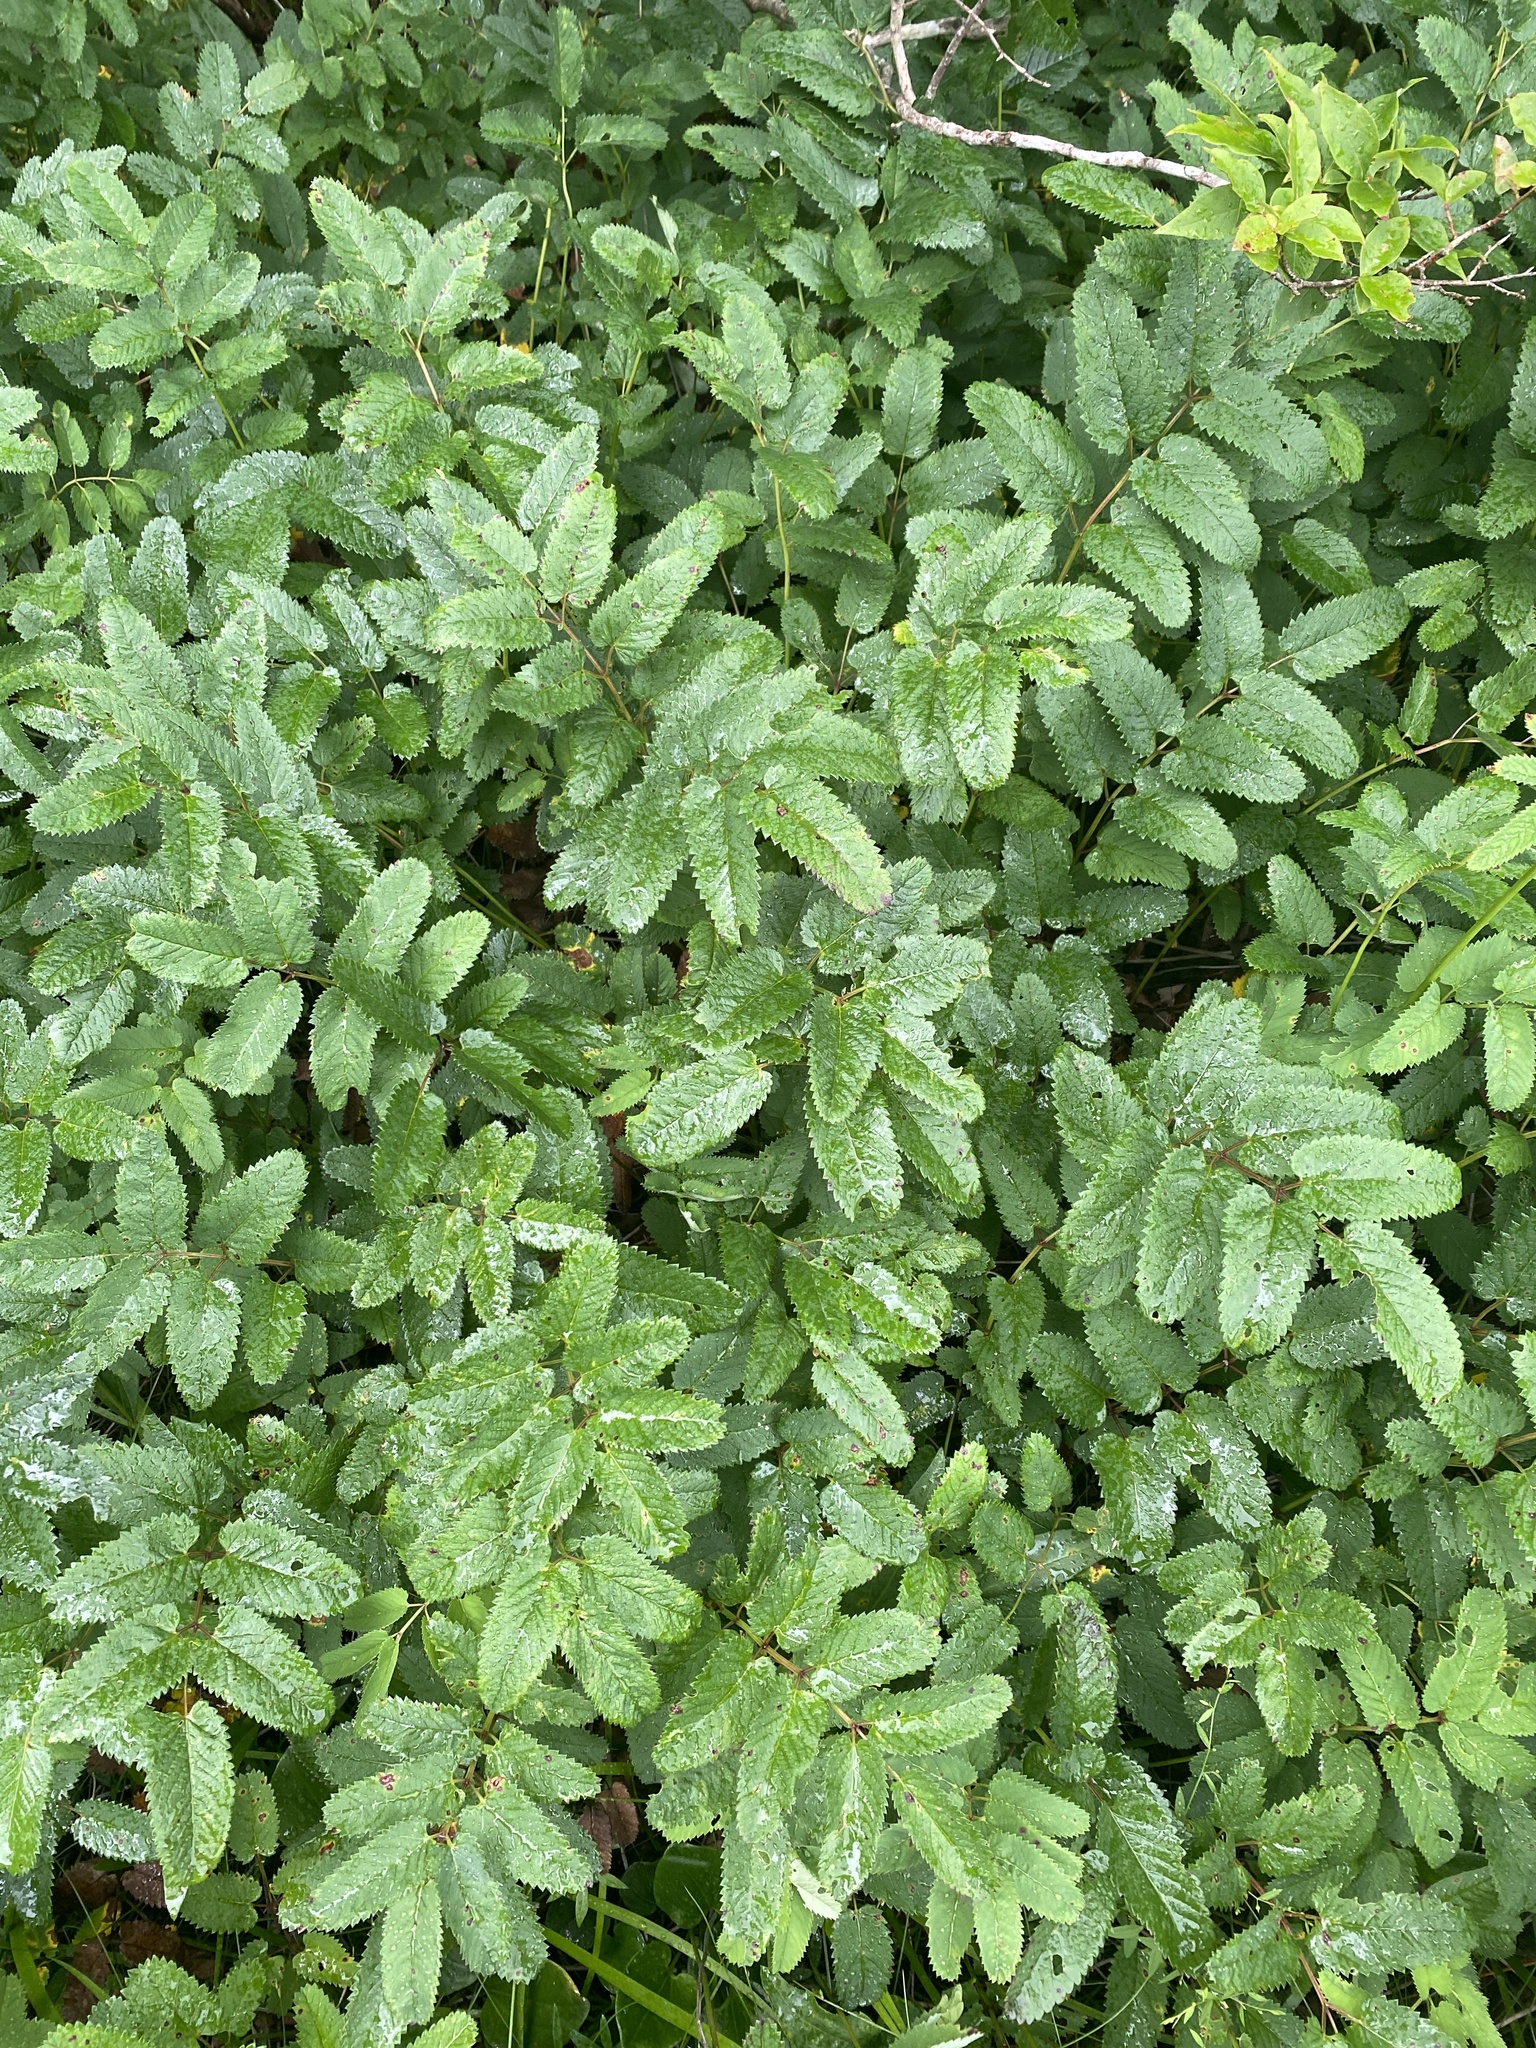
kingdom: Plantae
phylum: Tracheophyta
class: Magnoliopsida
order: Rosales
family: Rosaceae
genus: Sanguisorba
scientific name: Sanguisorba canadensis
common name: White burnet
